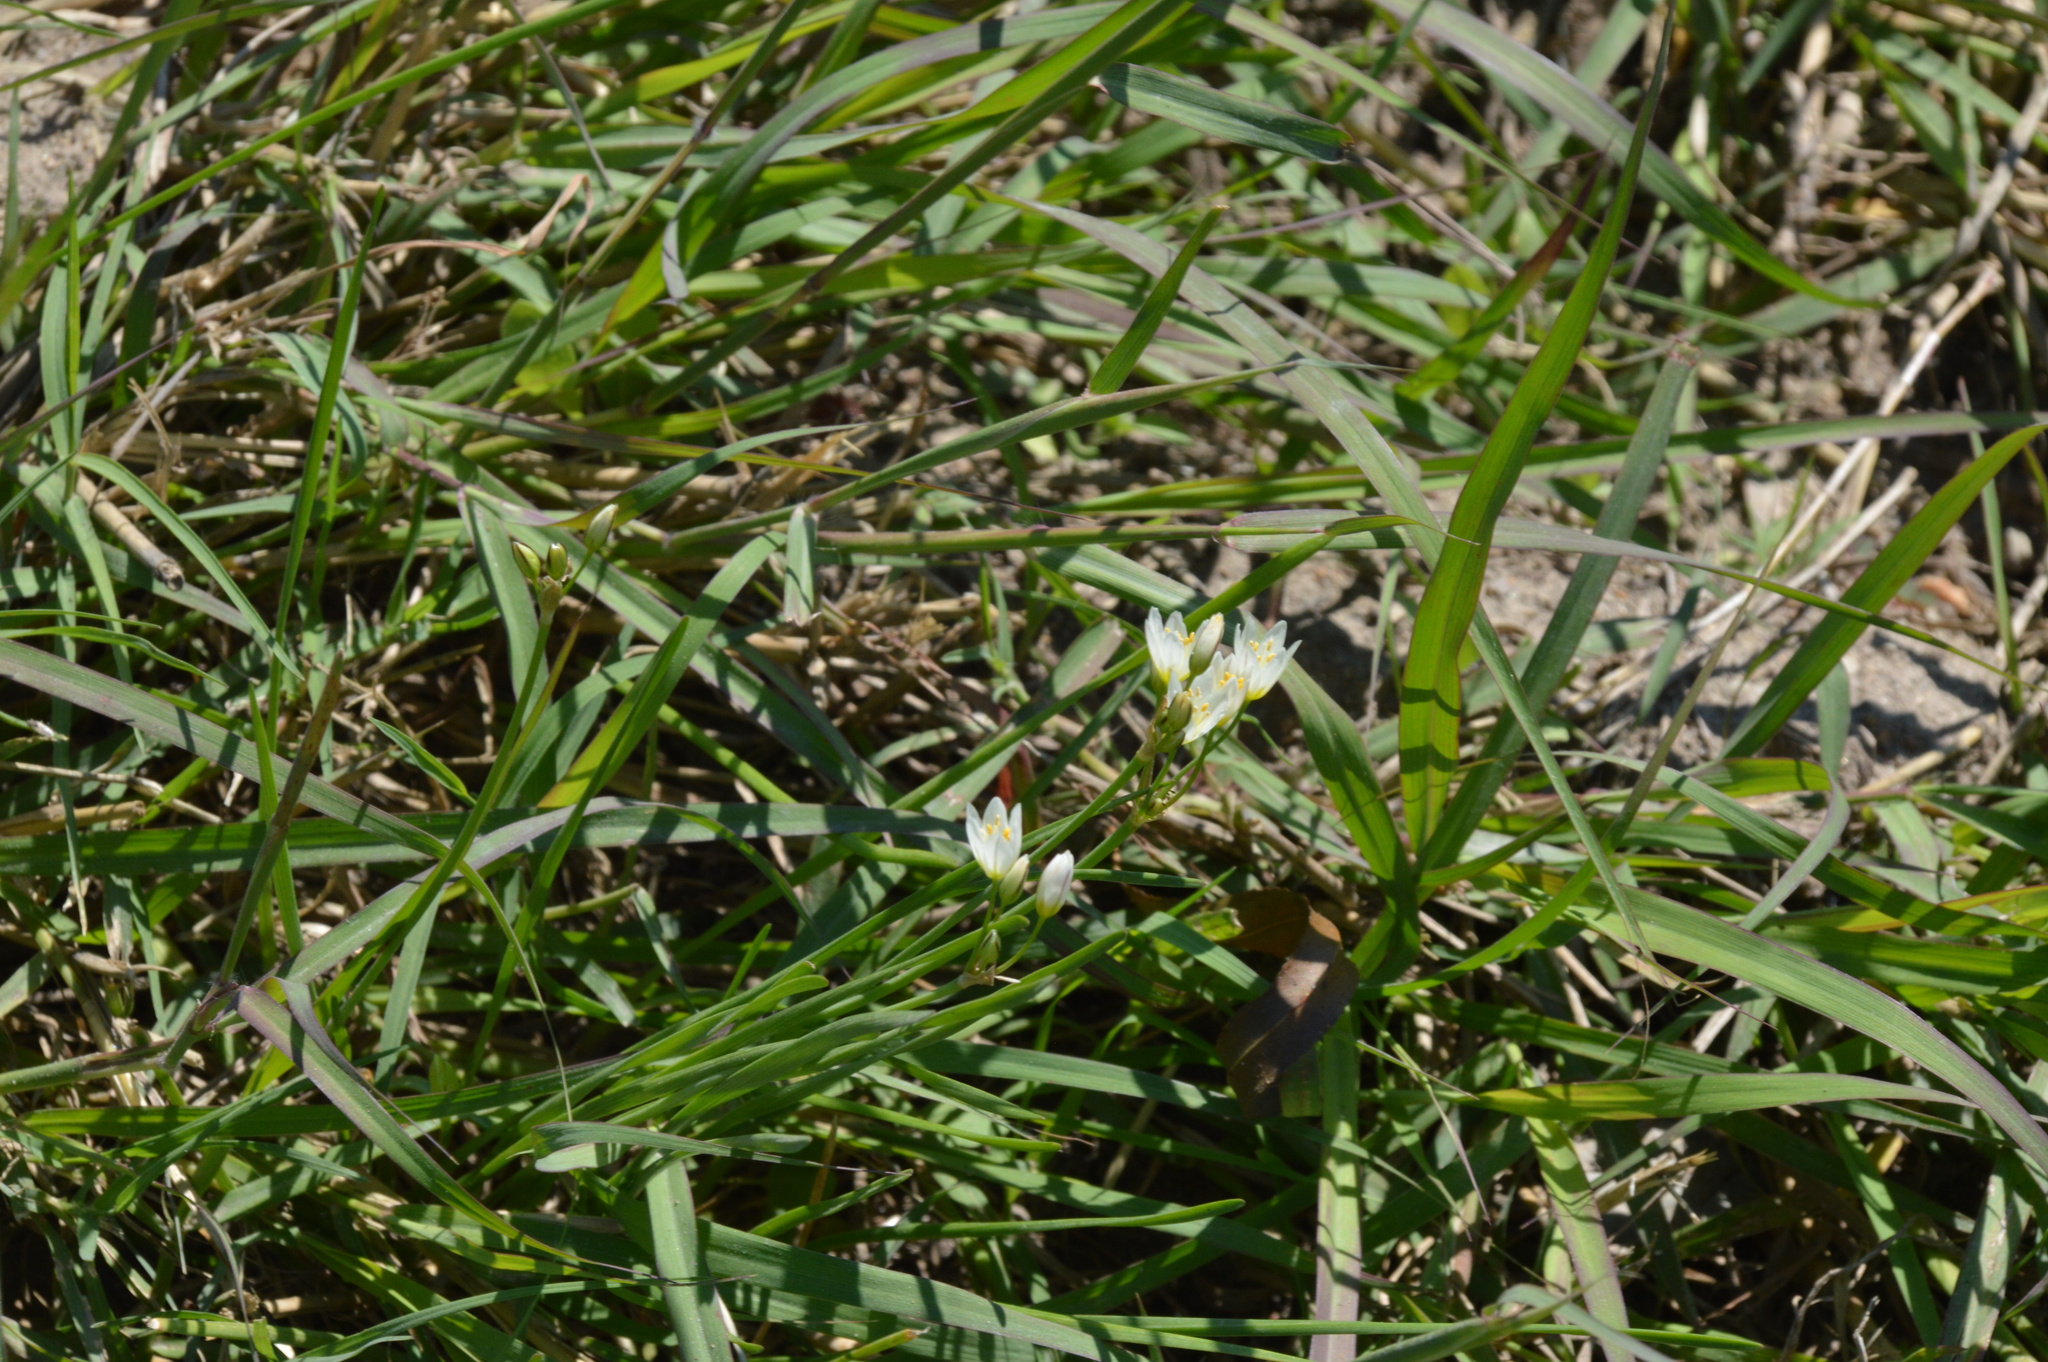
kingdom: Plantae
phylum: Tracheophyta
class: Liliopsida
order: Asparagales
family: Amaryllidaceae
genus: Nothoscordum
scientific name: Nothoscordum bivalve
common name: Crow-poison
